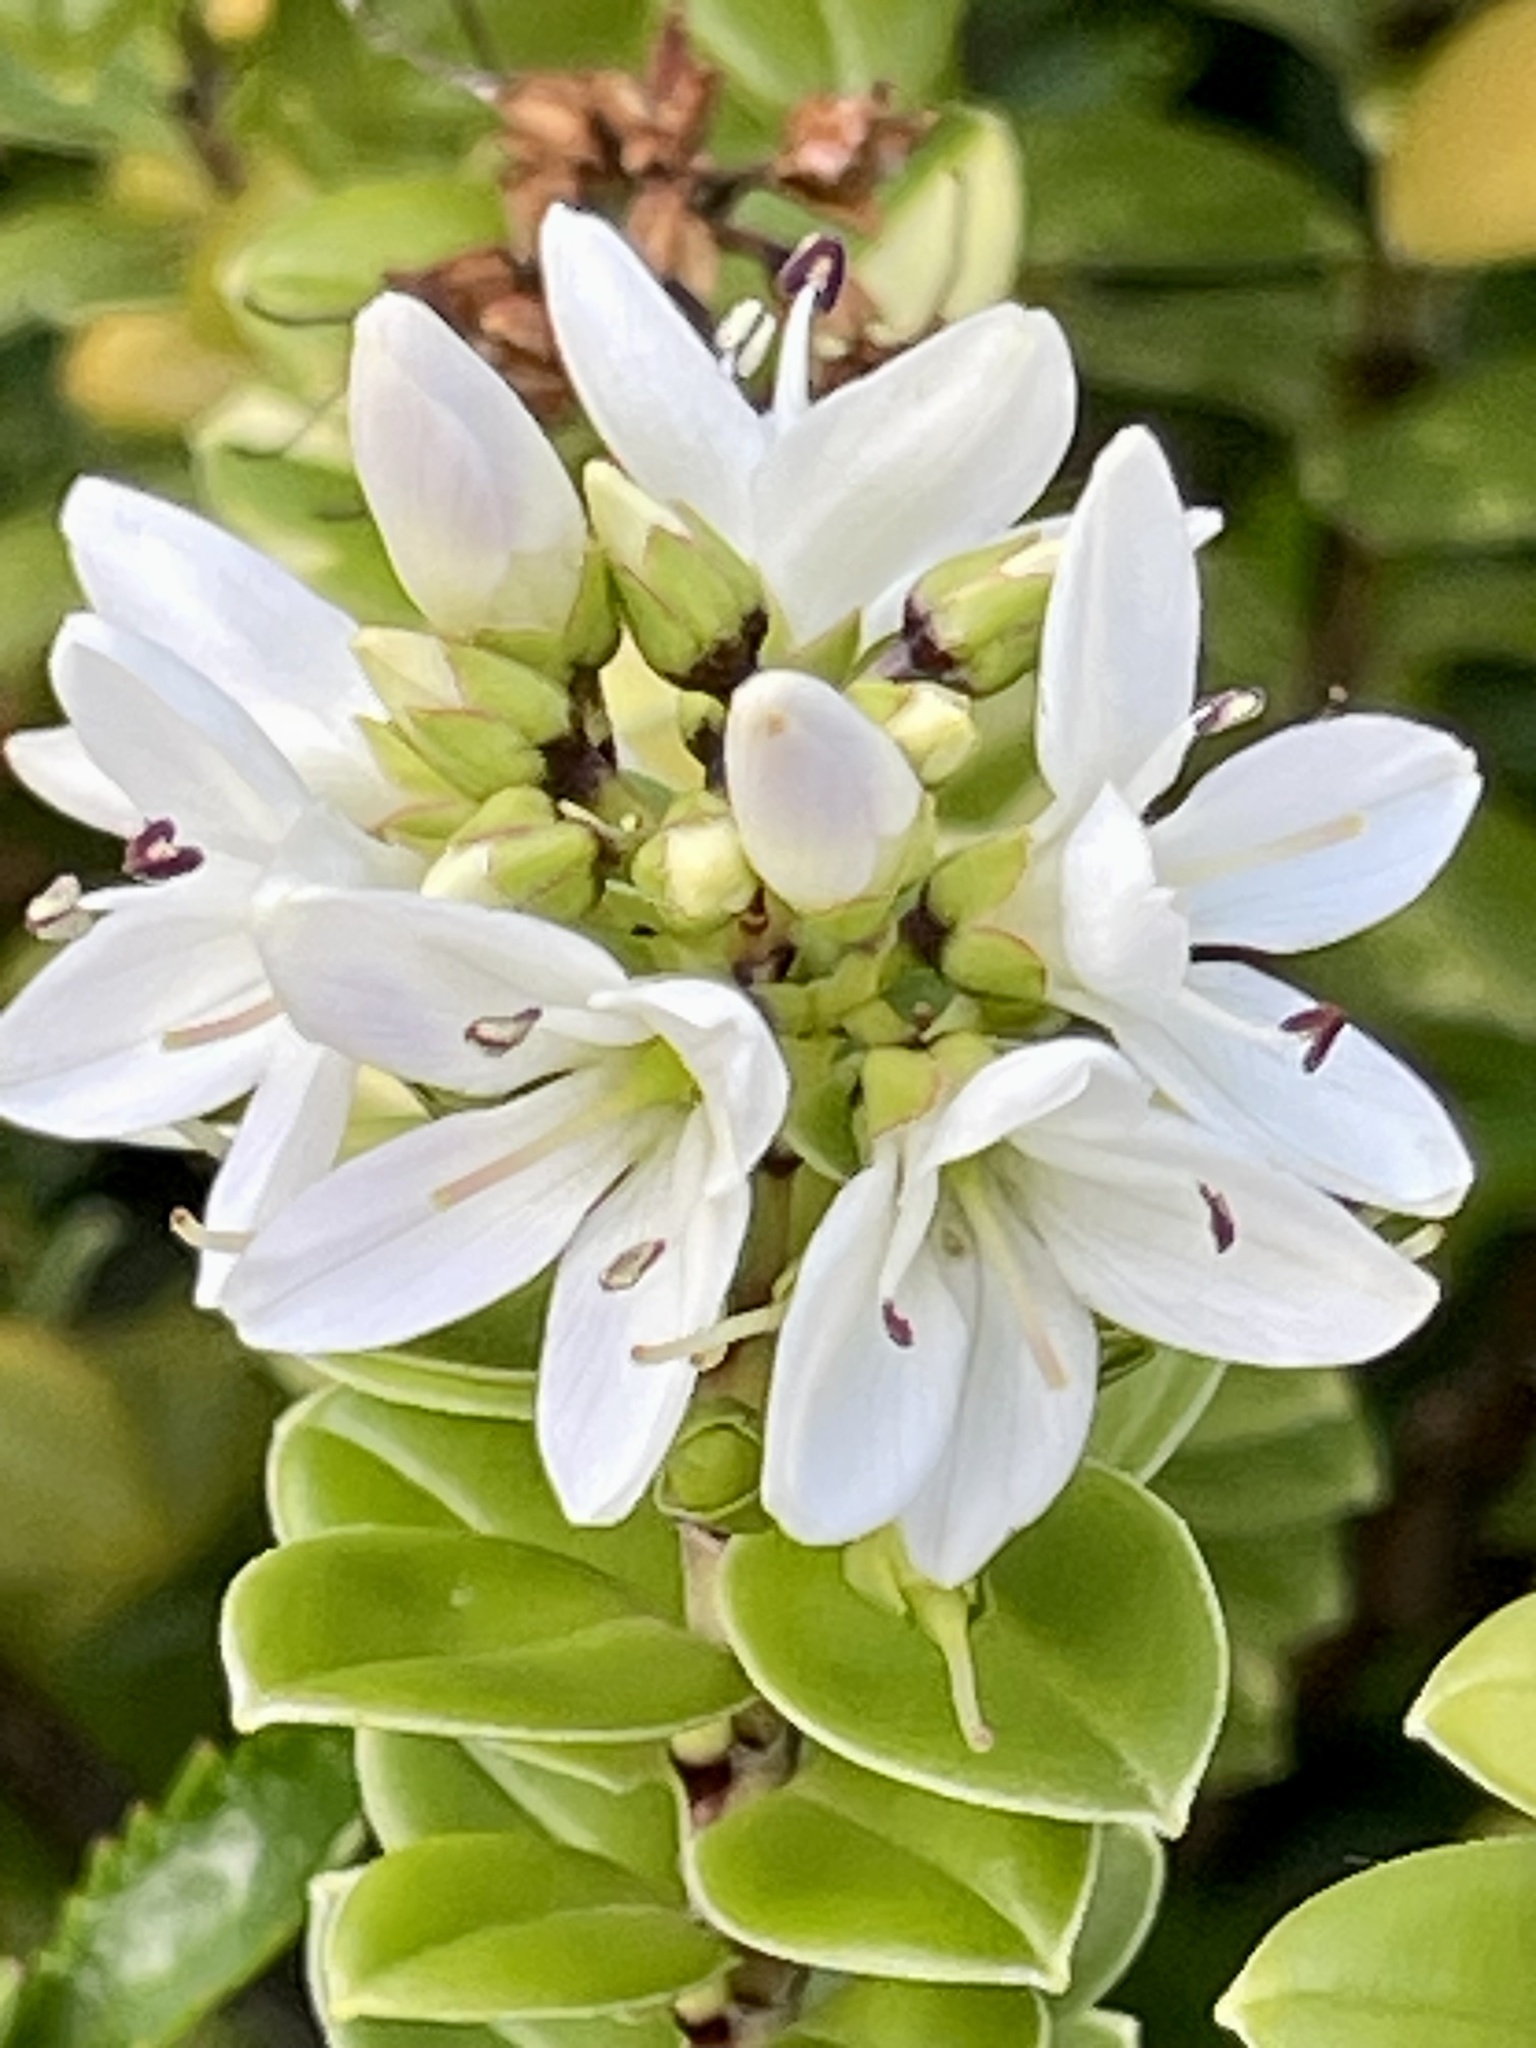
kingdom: Plantae
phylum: Tracheophyta
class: Magnoliopsida
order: Lamiales
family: Plantaginaceae
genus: Veronica
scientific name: Veronica elliptica
